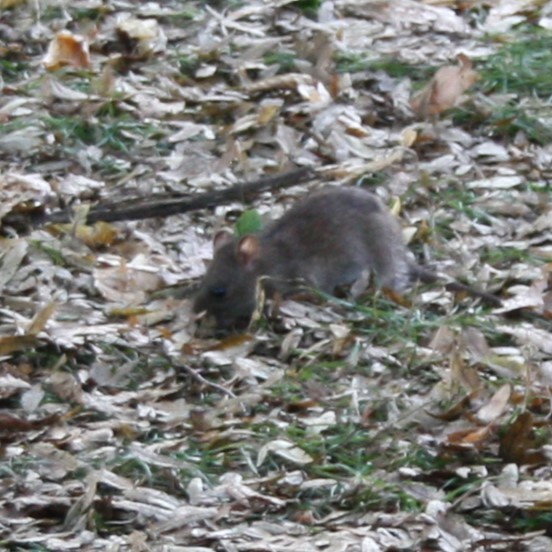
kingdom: Animalia
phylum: Chordata
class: Mammalia
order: Rodentia
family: Muridae
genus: Rattus
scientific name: Rattus norvegicus
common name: Brown rat
